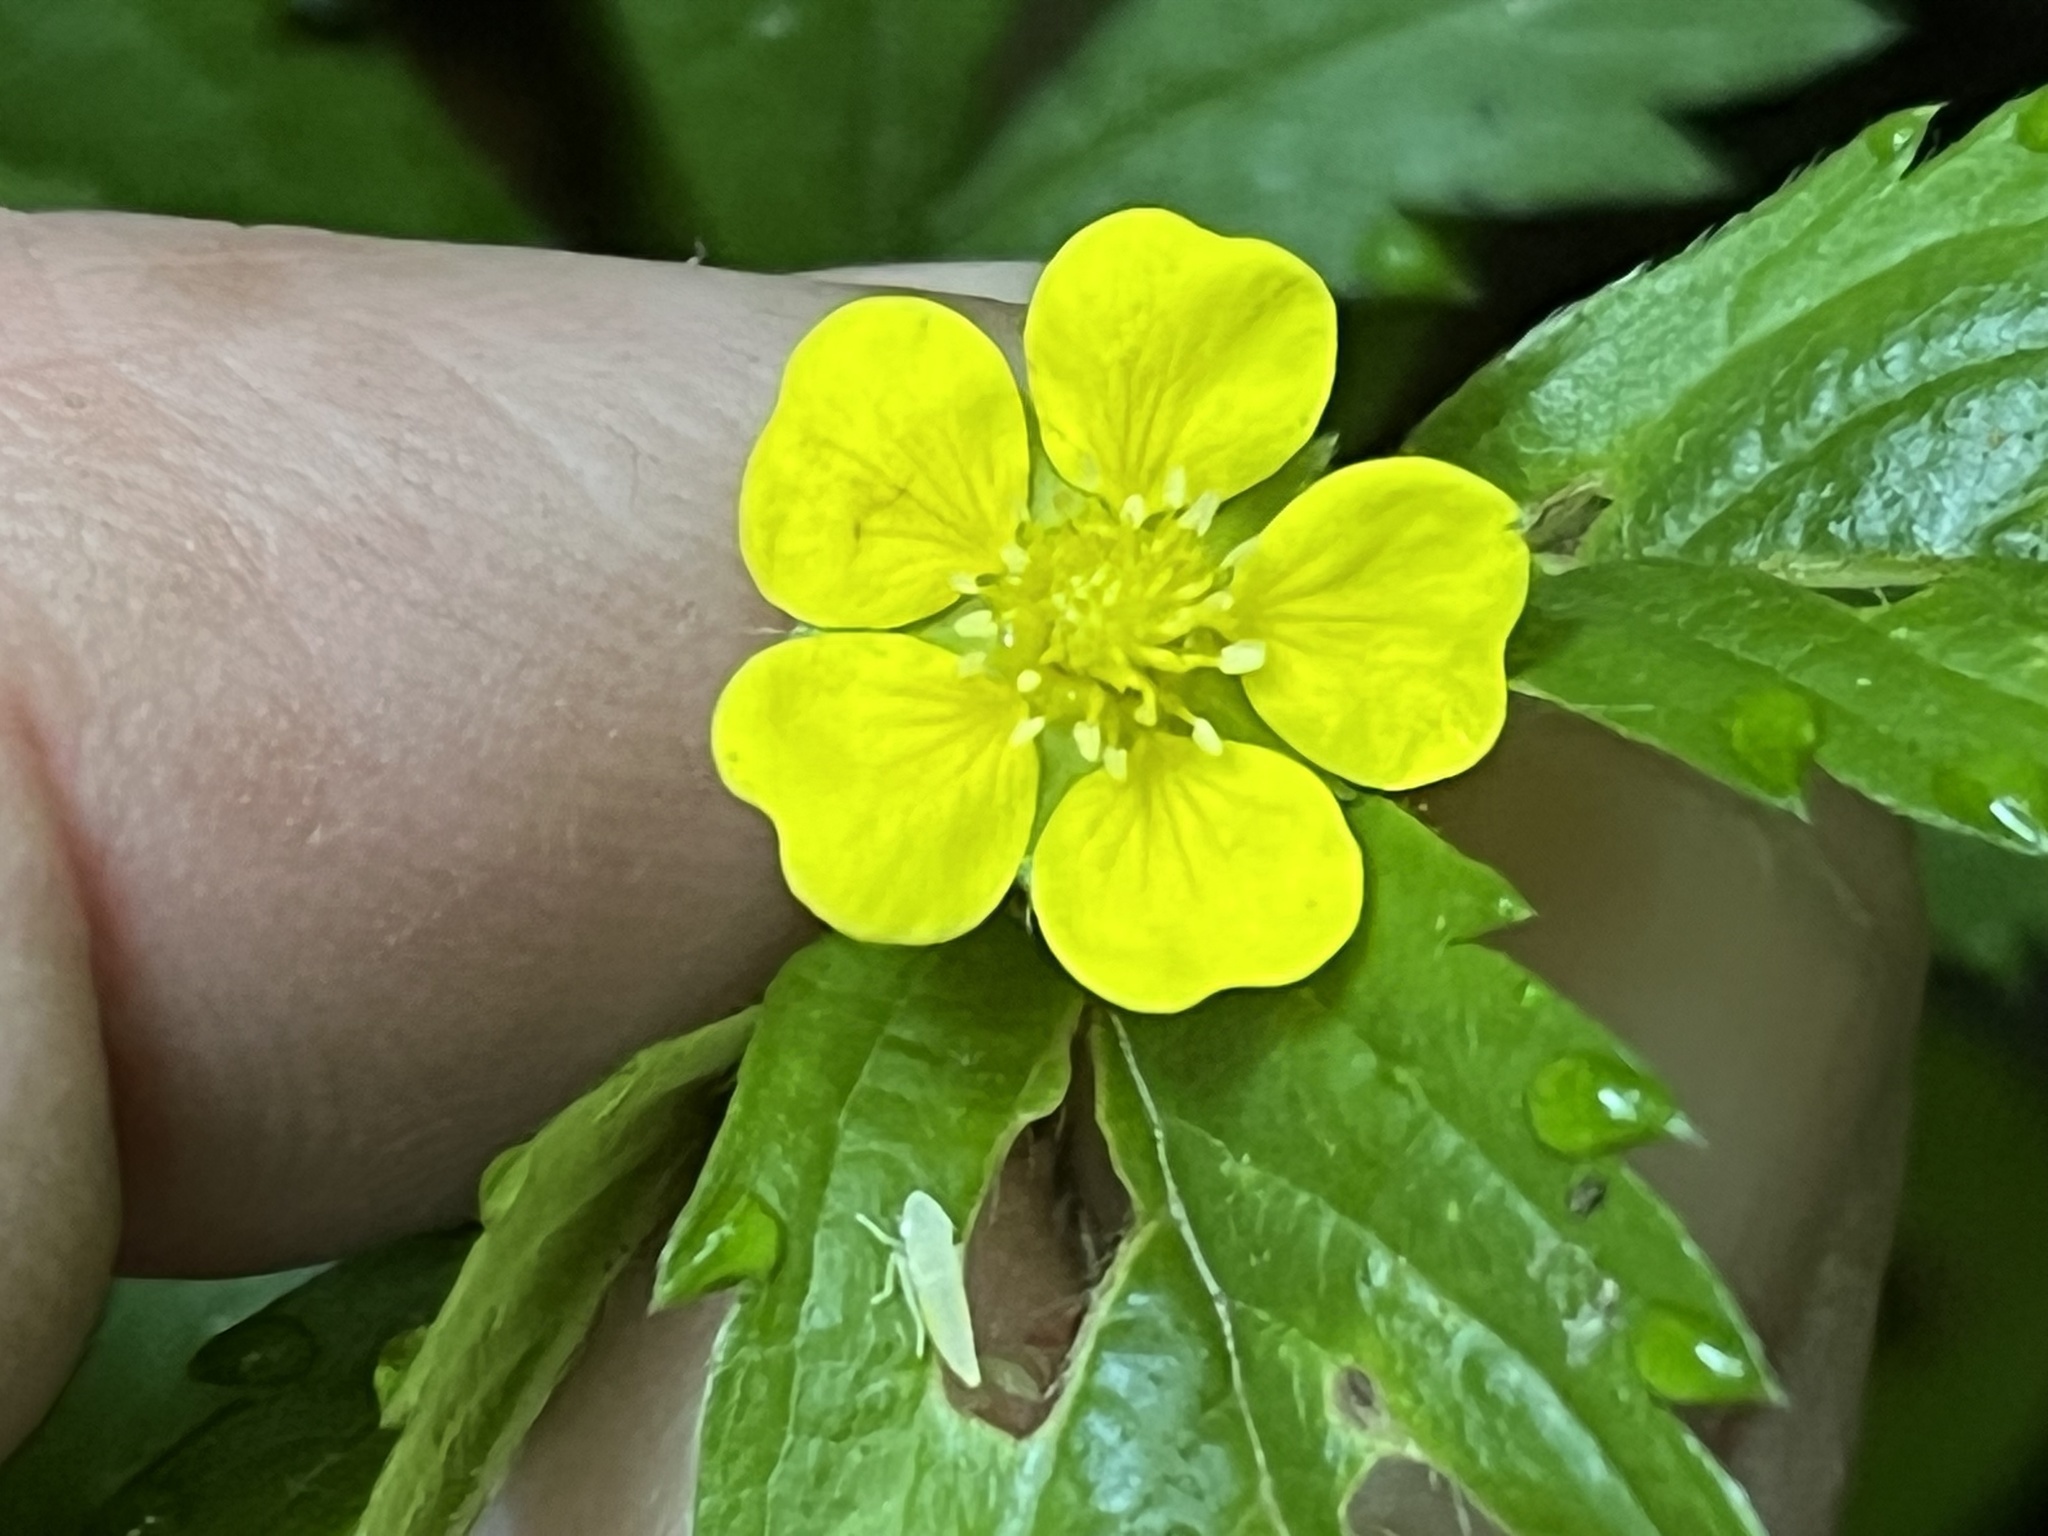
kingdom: Plantae
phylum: Tracheophyta
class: Magnoliopsida
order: Rosales
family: Rosaceae
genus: Potentilla
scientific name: Potentilla simplex
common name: Old field cinquefoil
